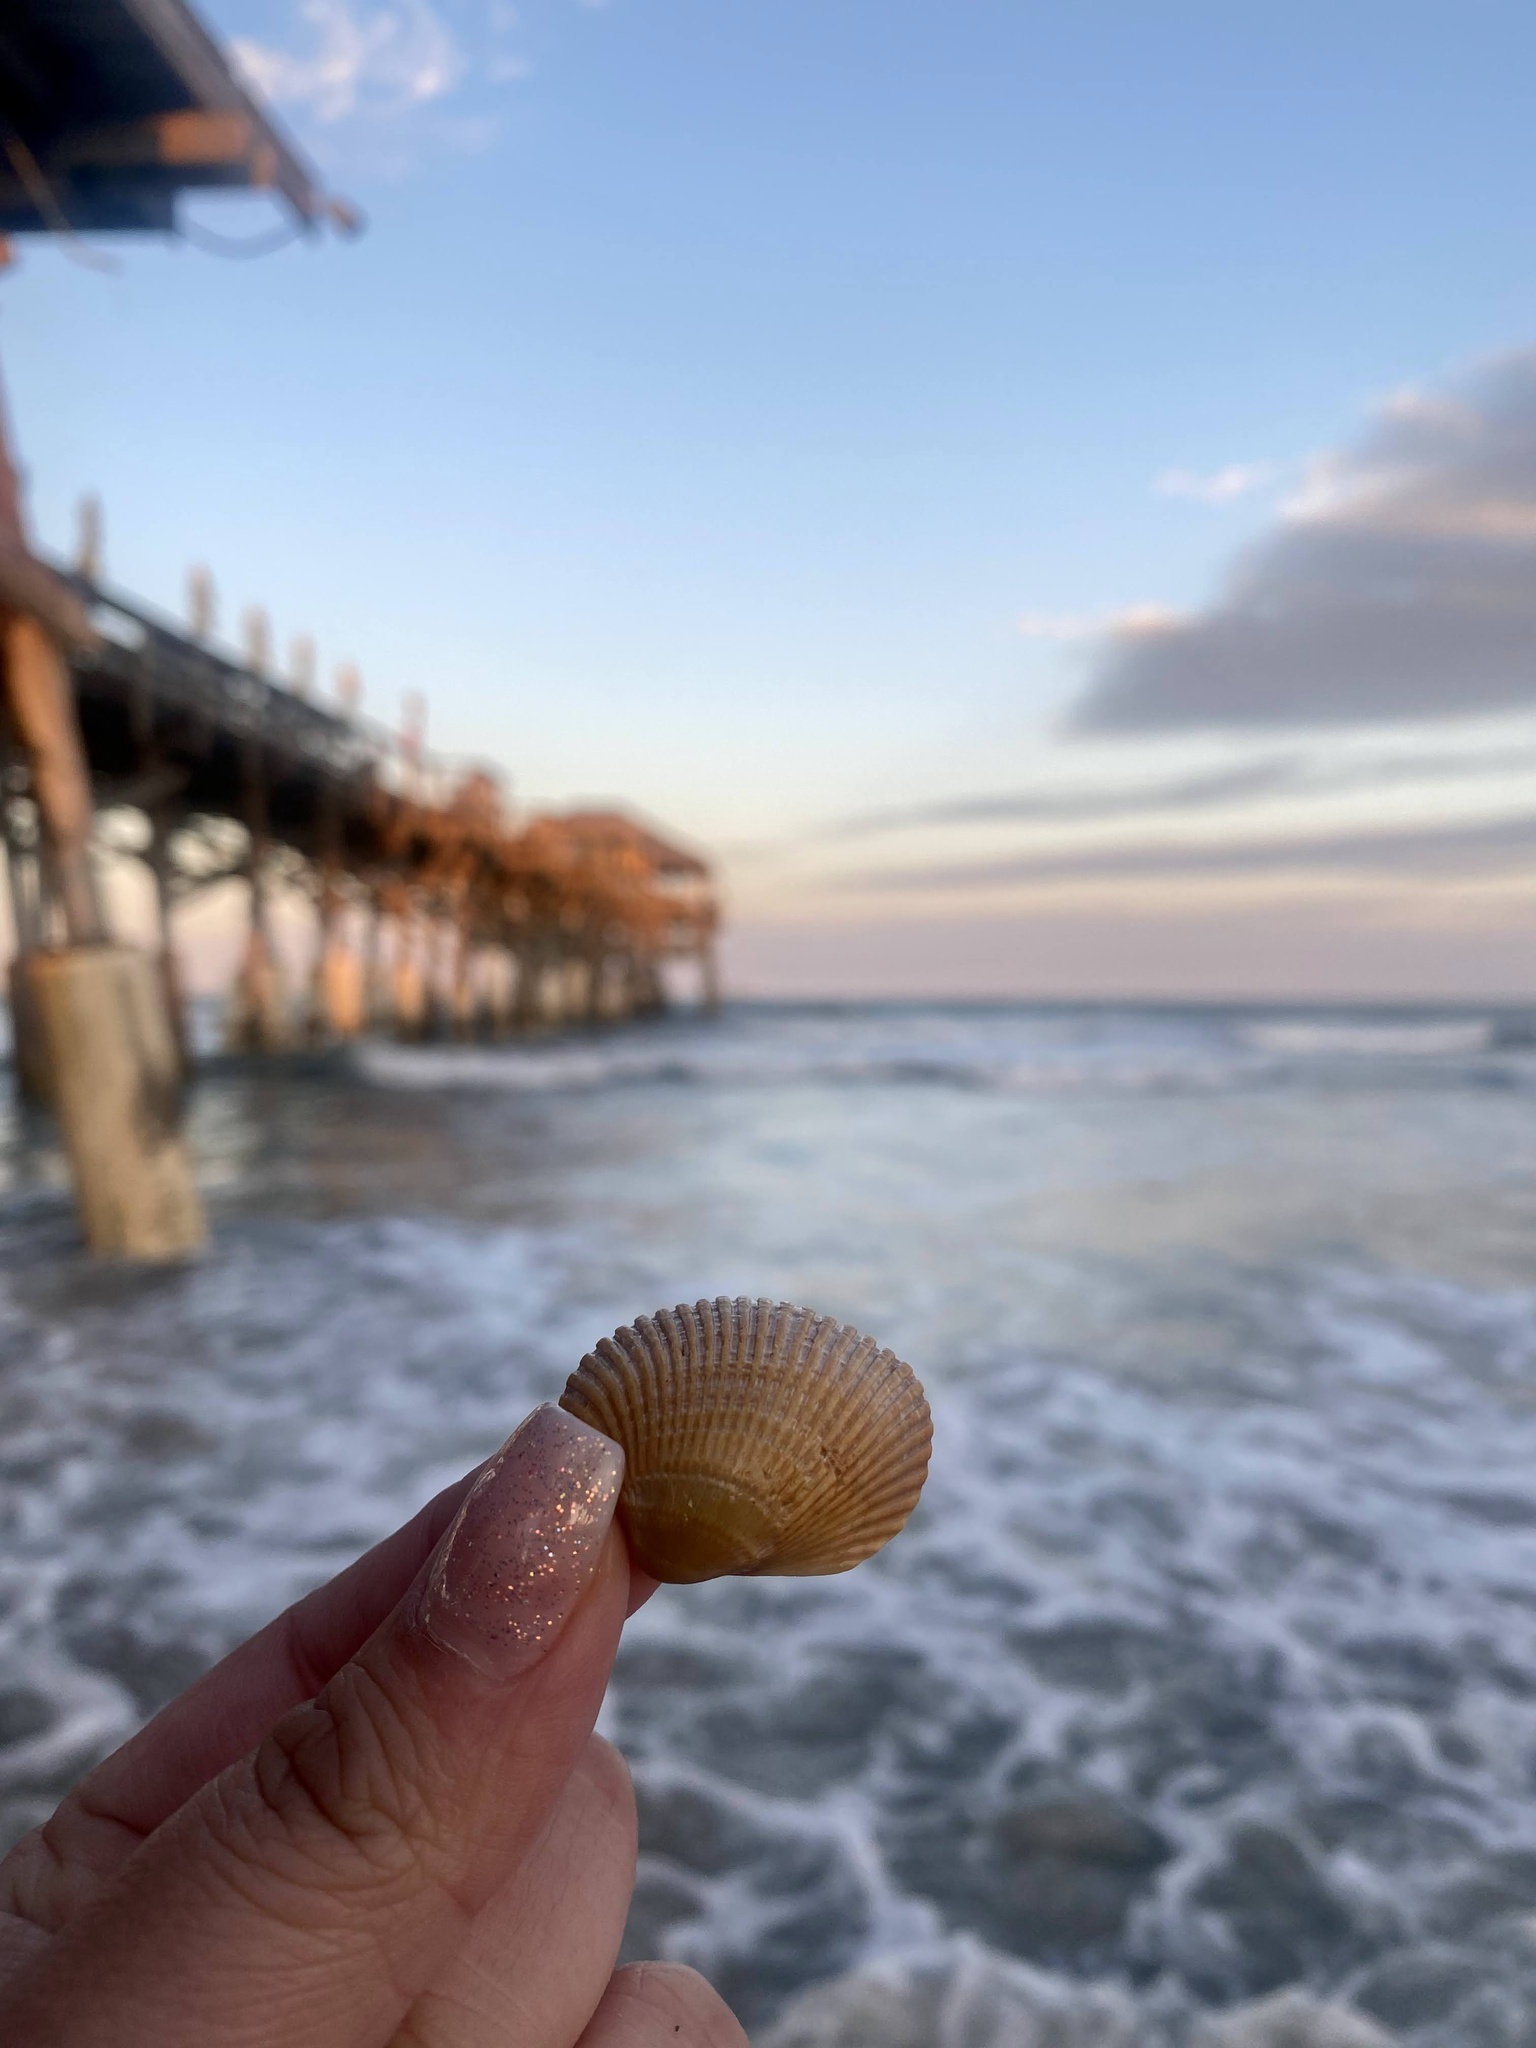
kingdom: Animalia
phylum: Mollusca
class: Bivalvia
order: Arcida
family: Arcidae
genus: Lunarca
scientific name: Lunarca ovalis
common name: Blood ark
